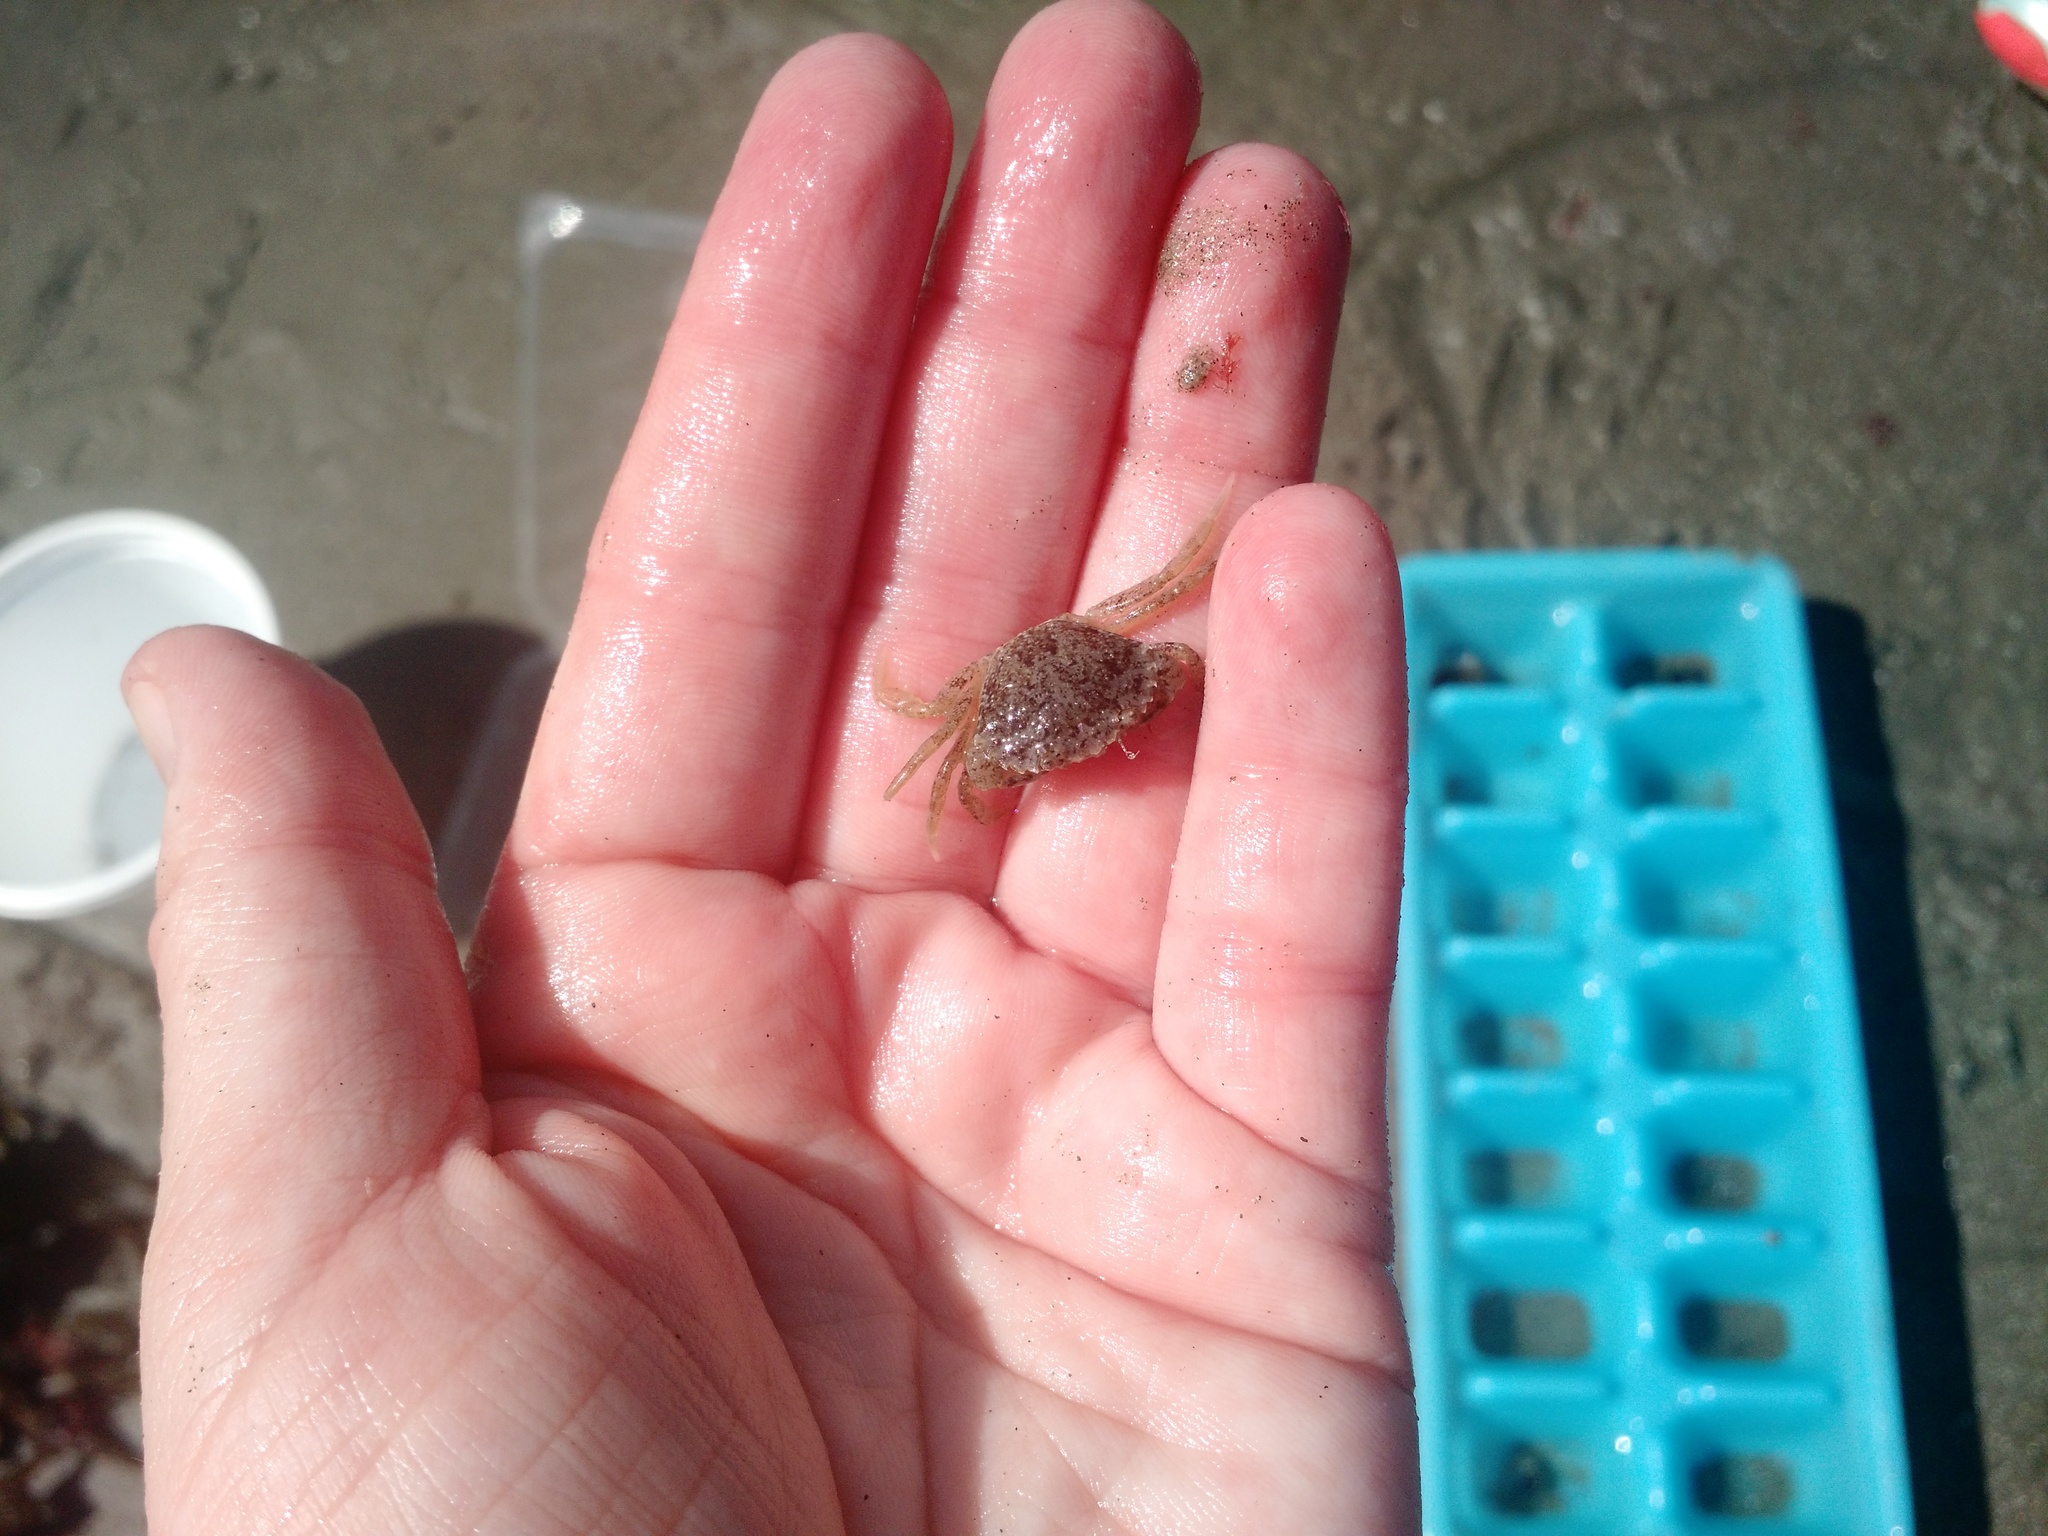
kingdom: Animalia
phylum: Arthropoda
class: Malacostraca
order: Decapoda
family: Carcinidae
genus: Carcinus
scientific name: Carcinus maenas
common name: European green crab
